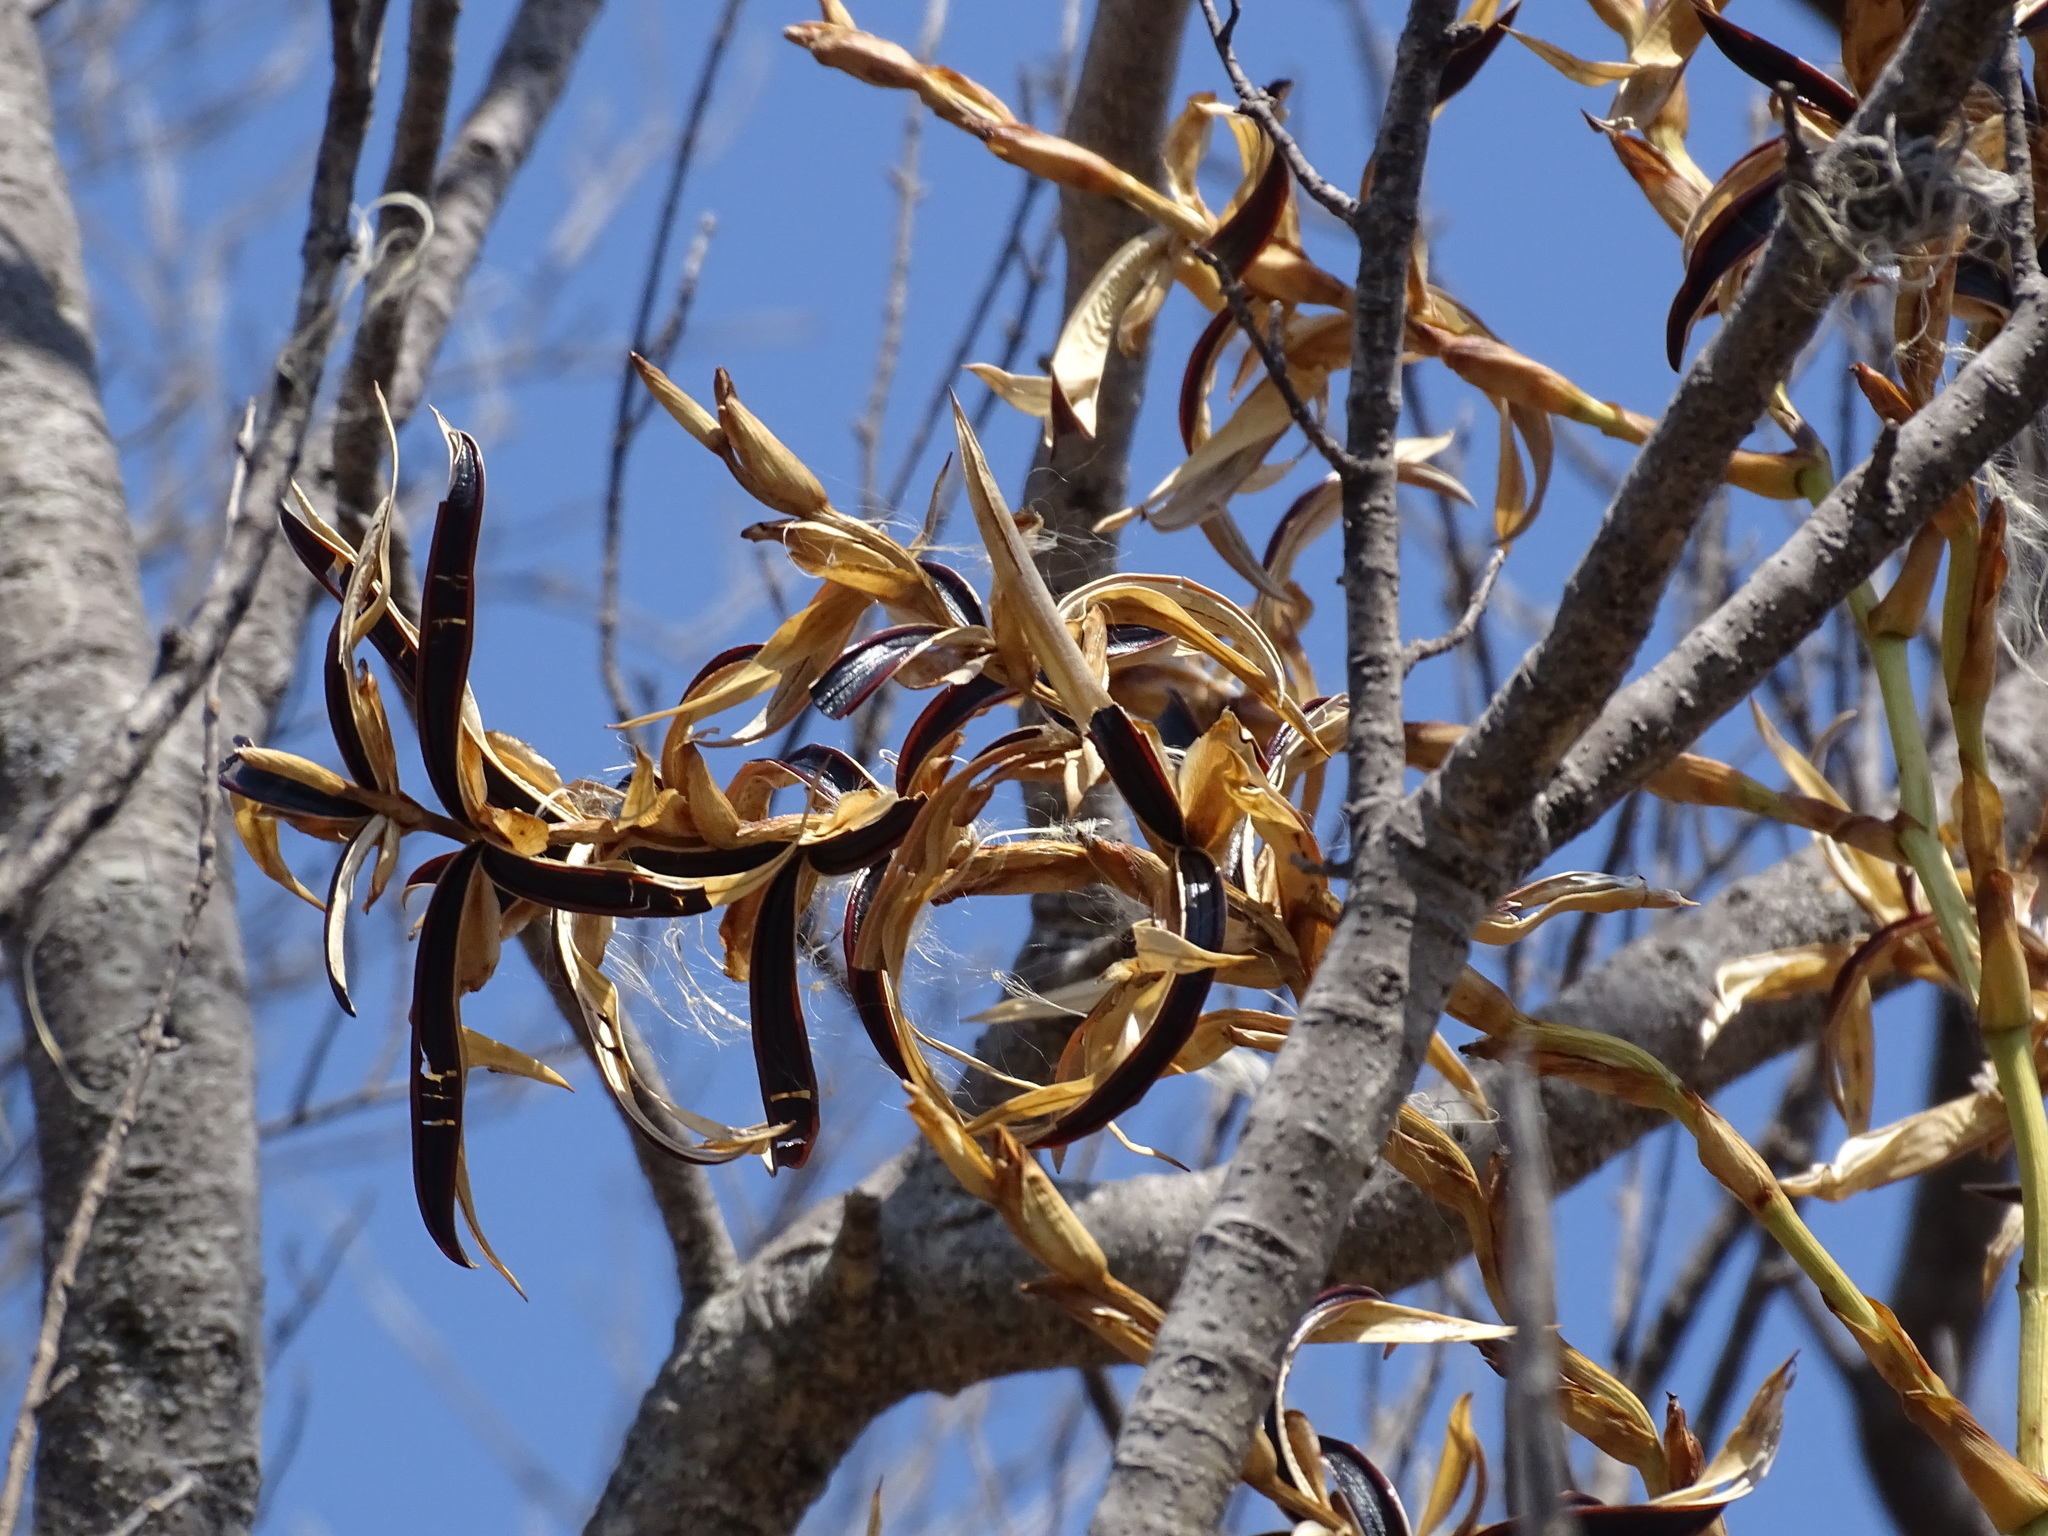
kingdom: Plantae
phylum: Tracheophyta
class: Liliopsida
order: Poales
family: Bromeliaceae
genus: Tillandsia
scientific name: Tillandsia tehuacana
